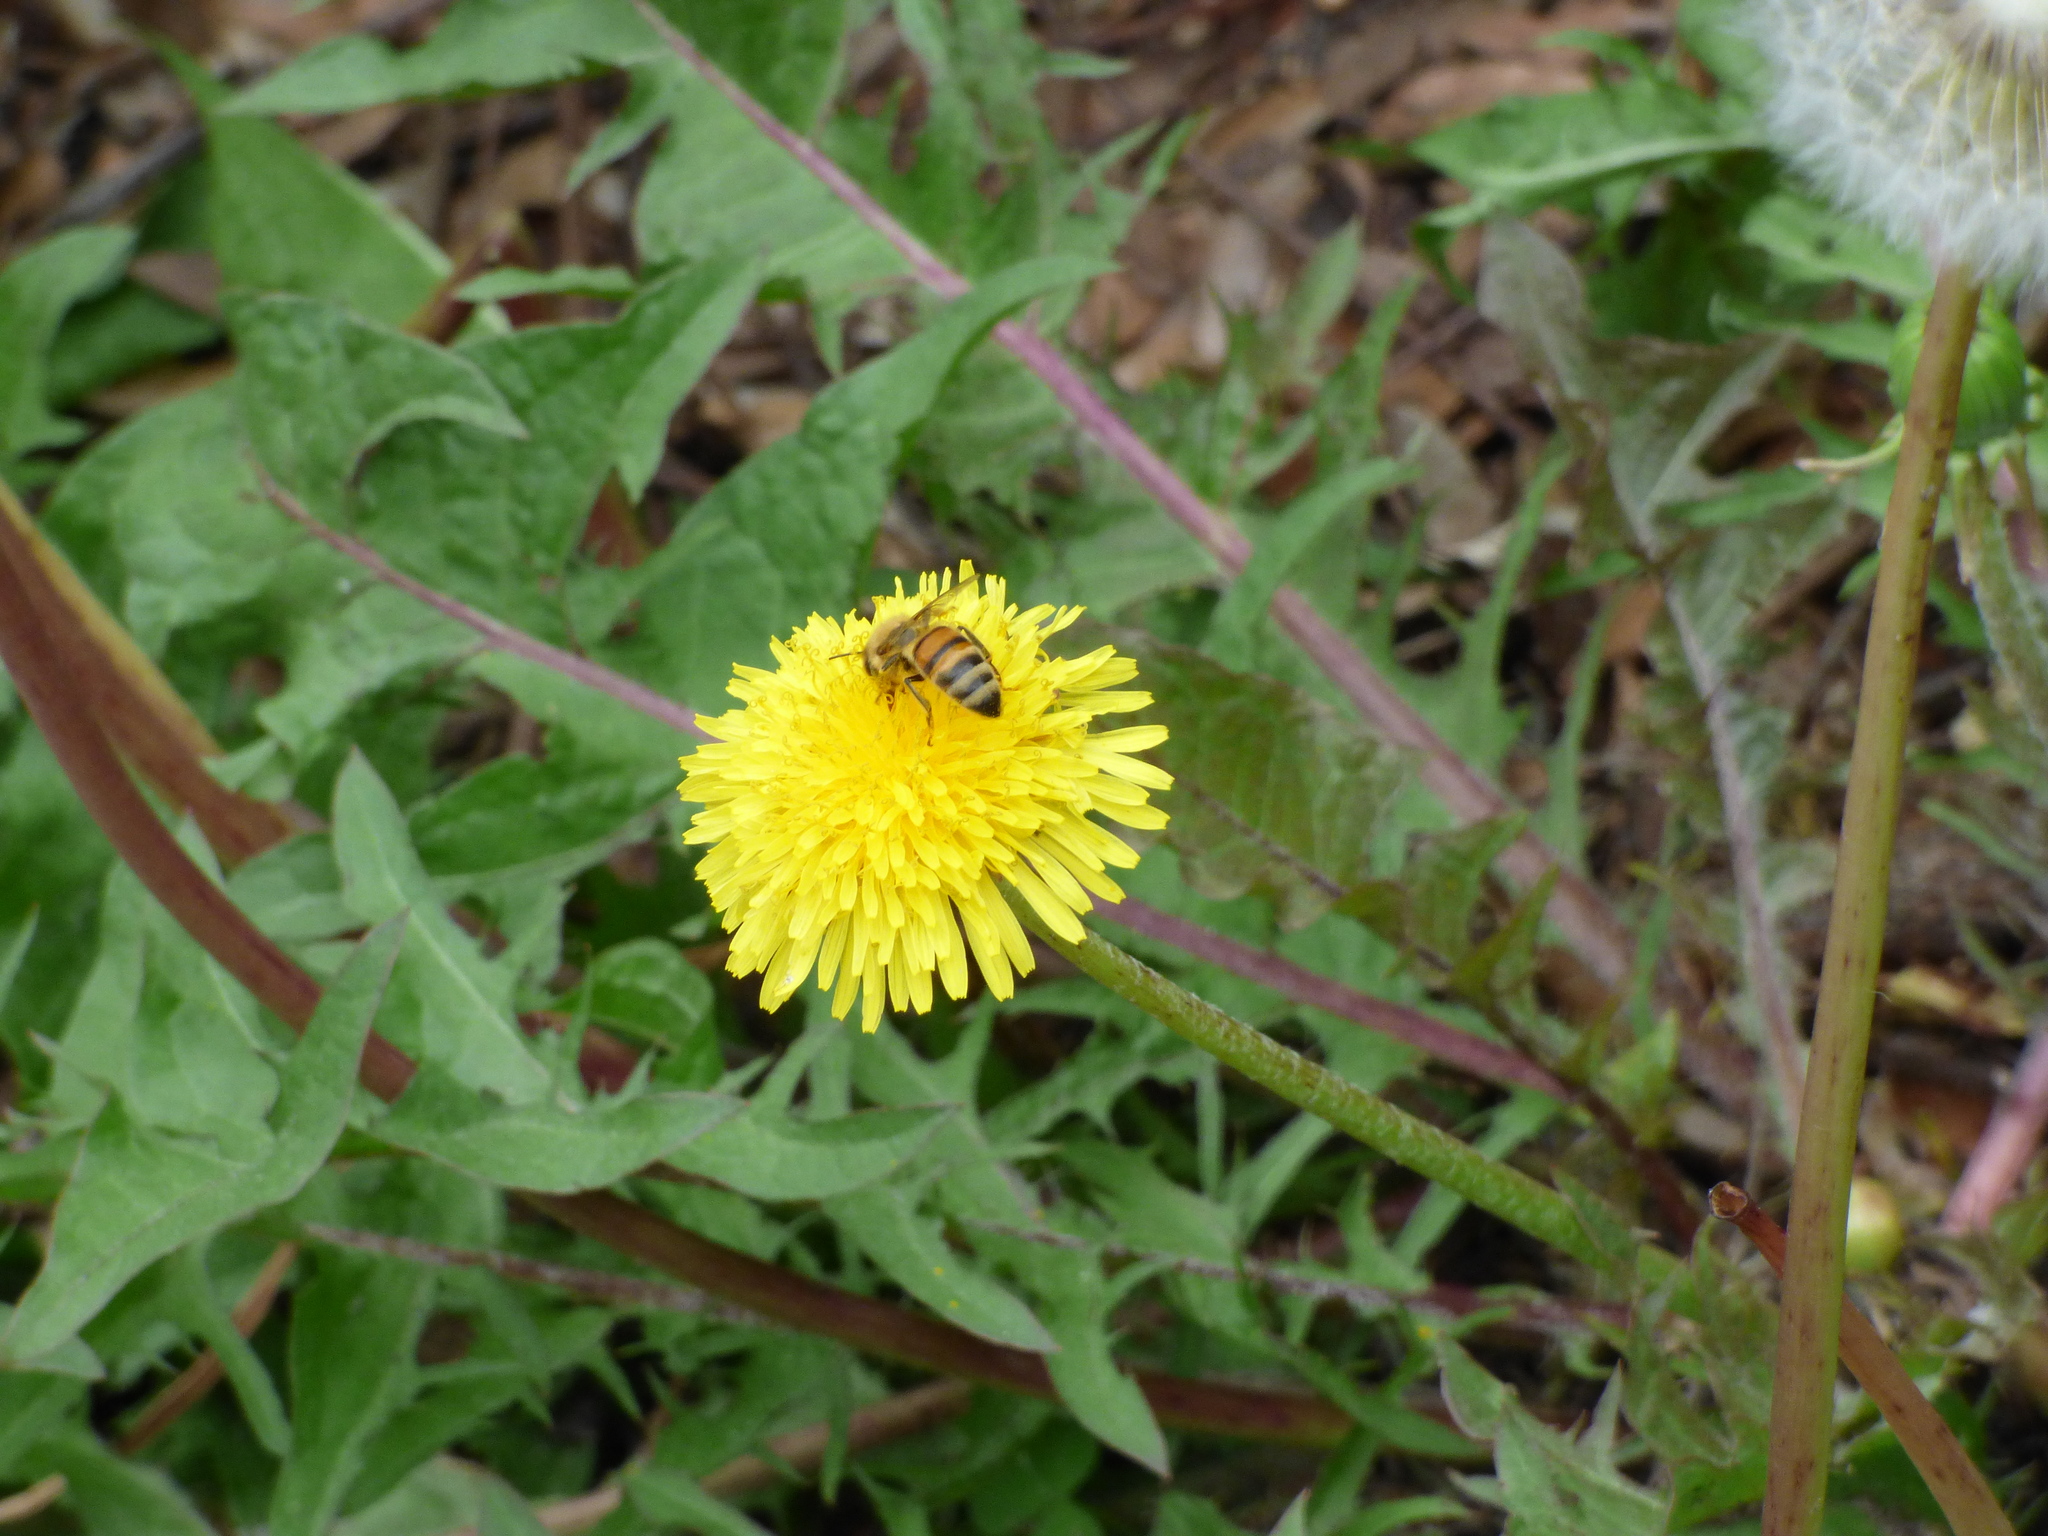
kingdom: Animalia
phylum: Arthropoda
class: Insecta
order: Hymenoptera
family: Apidae
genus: Apis
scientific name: Apis mellifera
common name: Honey bee
